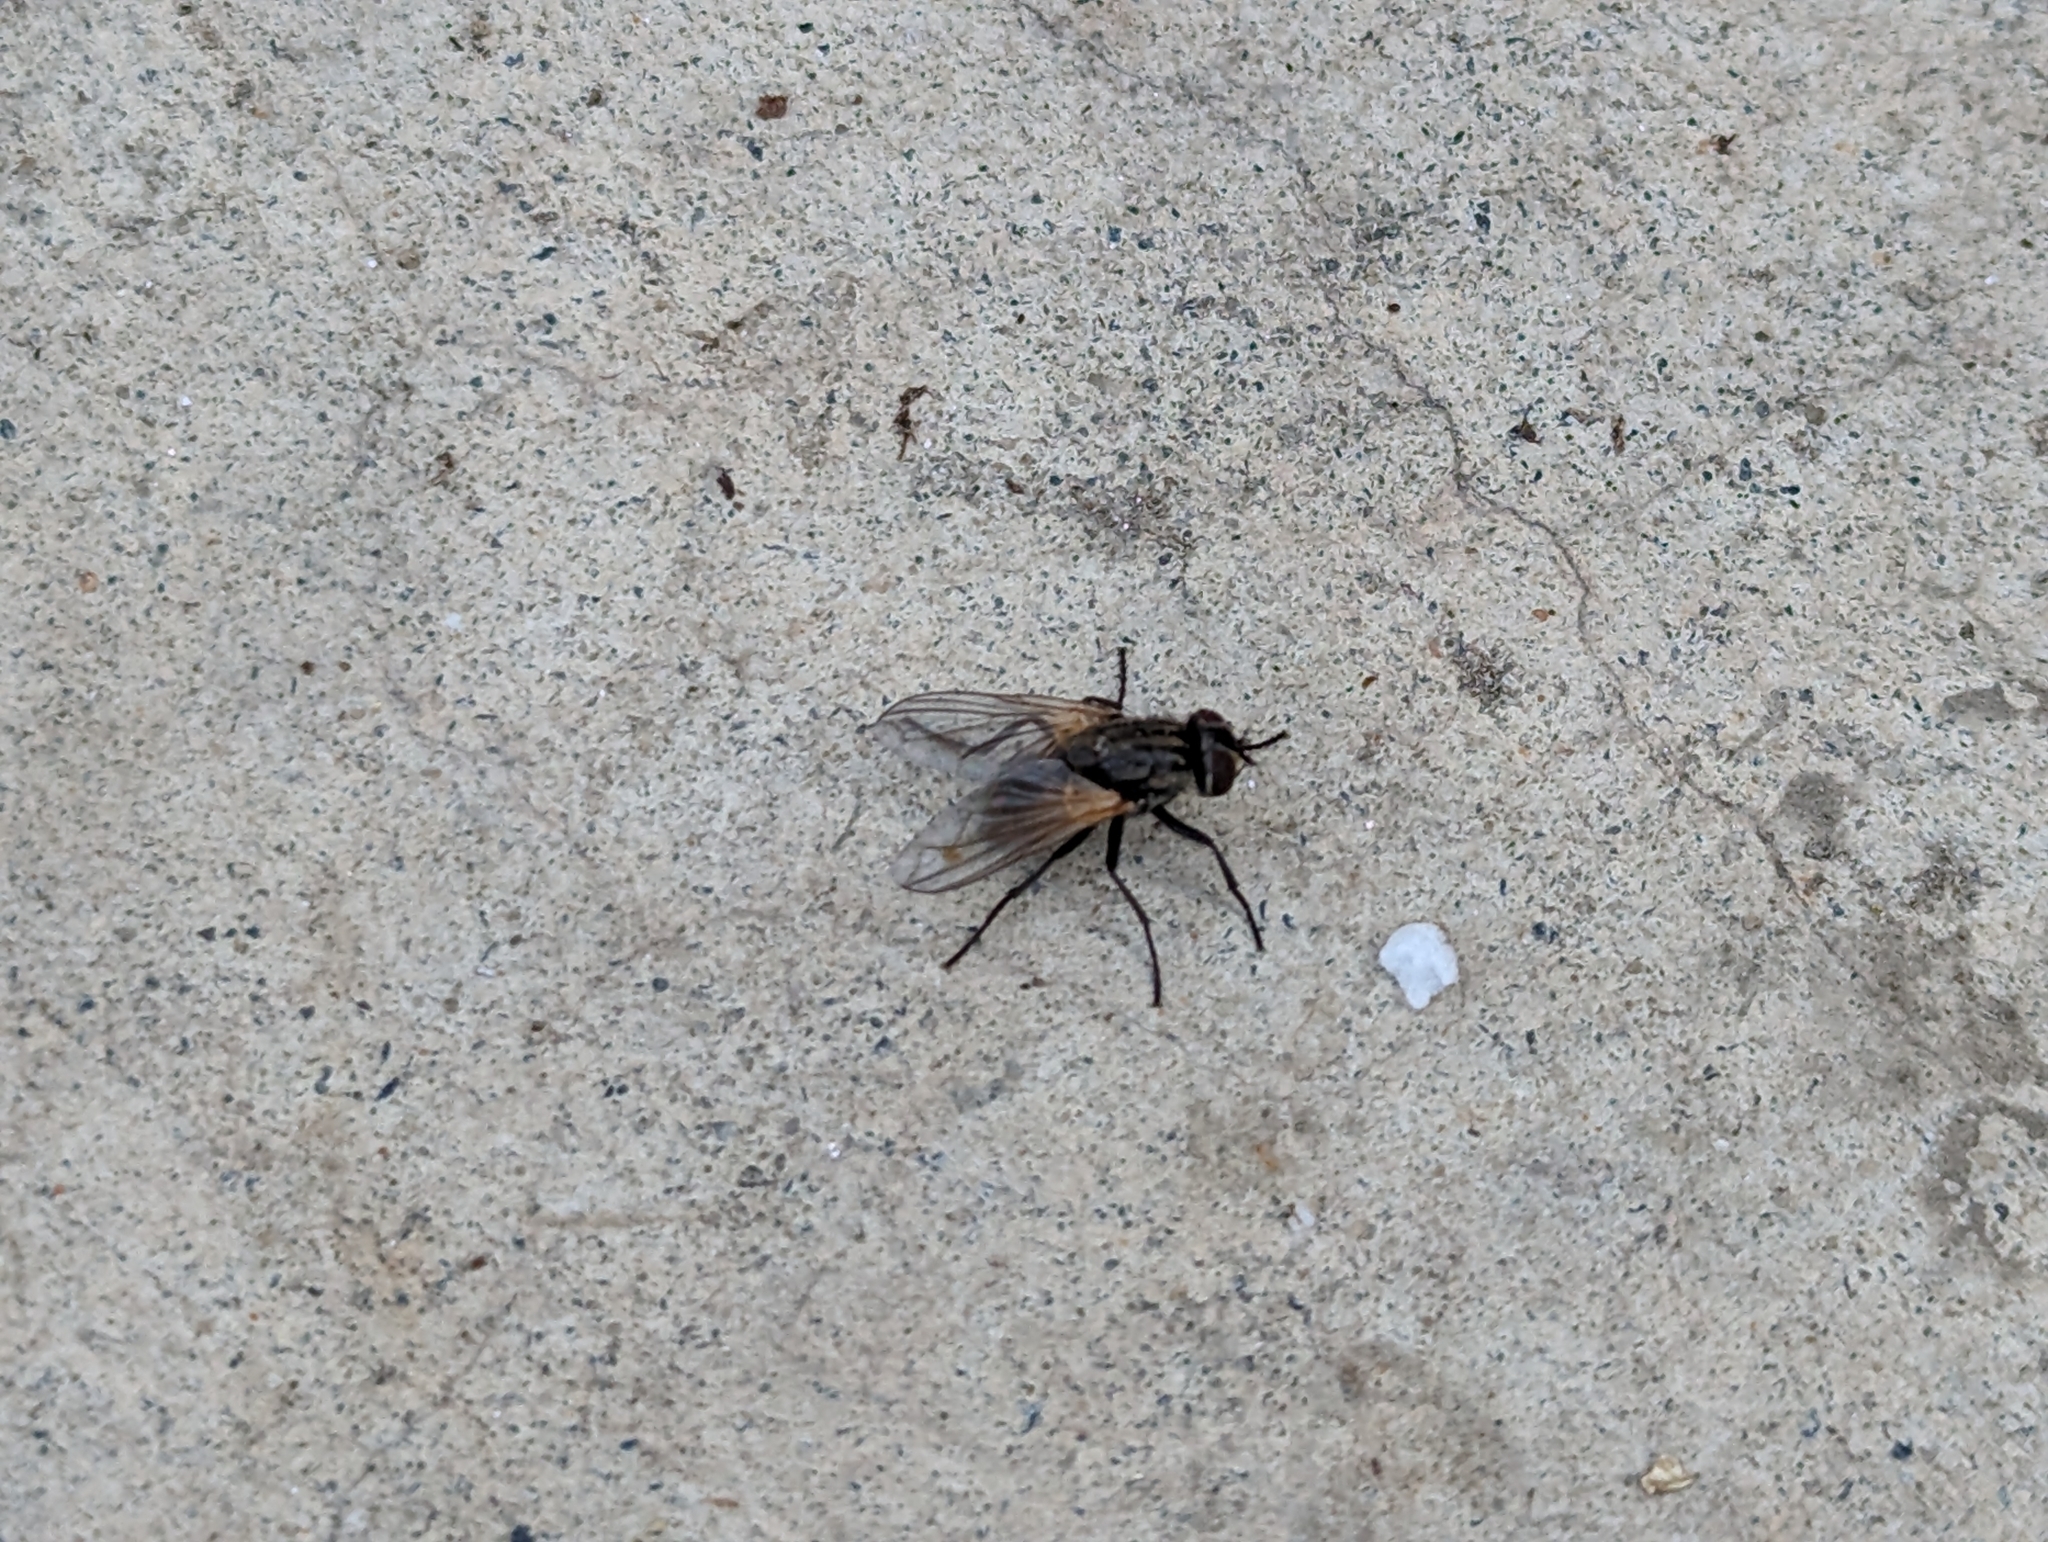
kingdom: Animalia
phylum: Arthropoda
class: Insecta
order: Diptera
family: Muscidae
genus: Musca
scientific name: Musca domestica
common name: House fly
